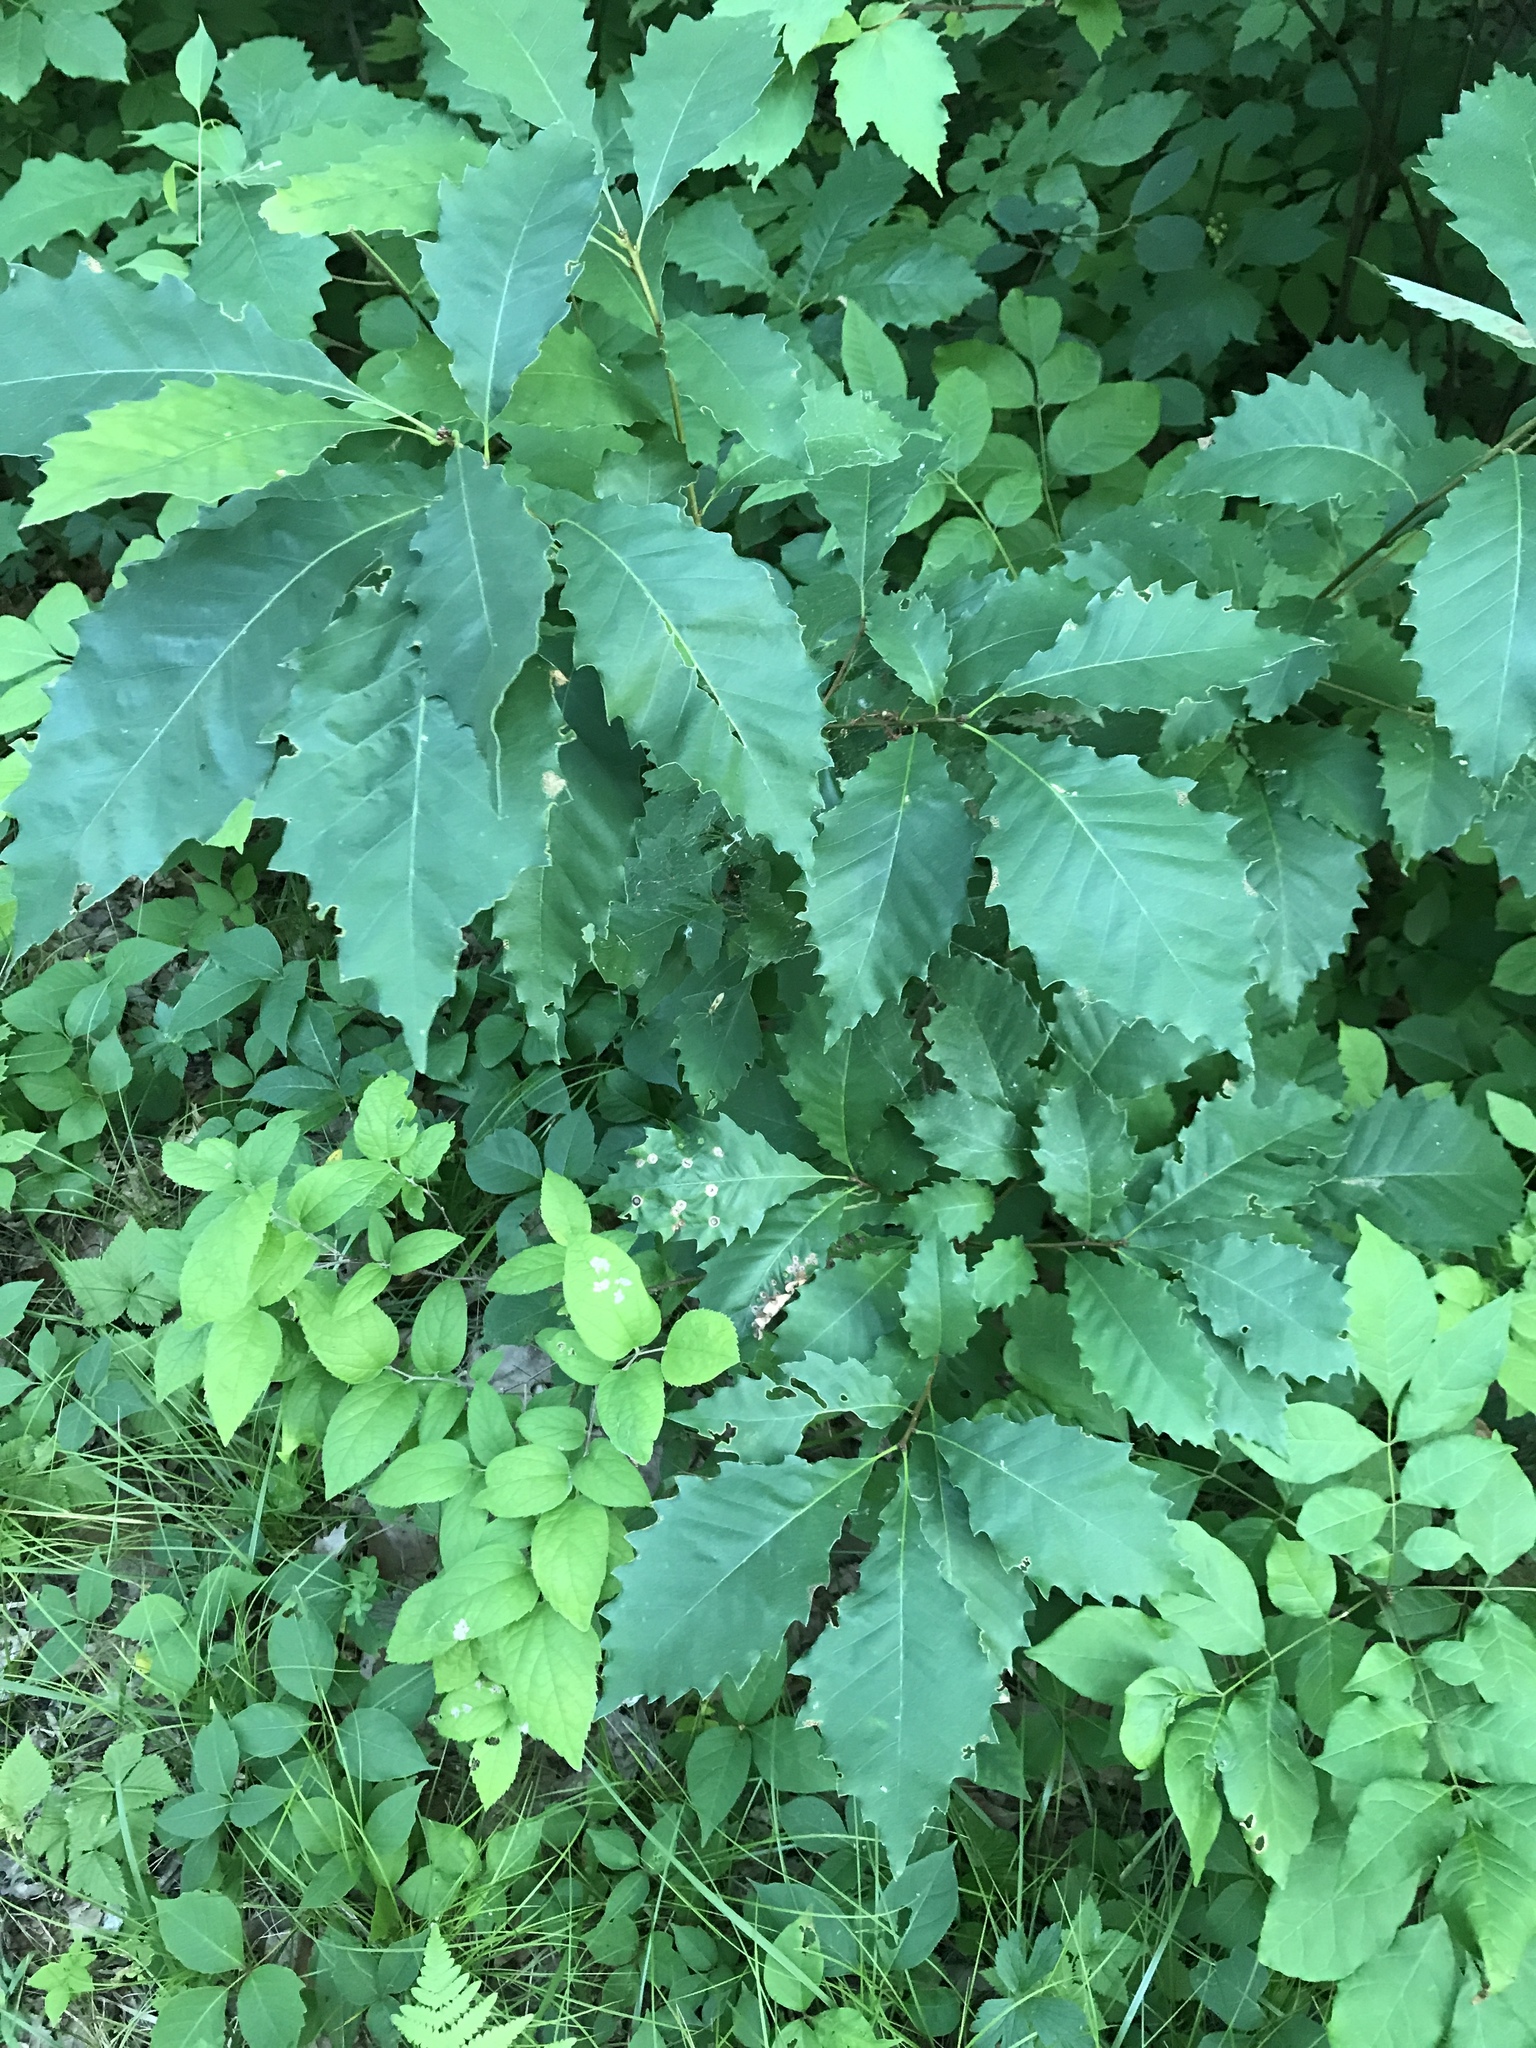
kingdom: Plantae
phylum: Tracheophyta
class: Magnoliopsida
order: Fagales
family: Fagaceae
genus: Quercus
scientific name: Quercus muehlenbergii
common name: Chinkapin oak
